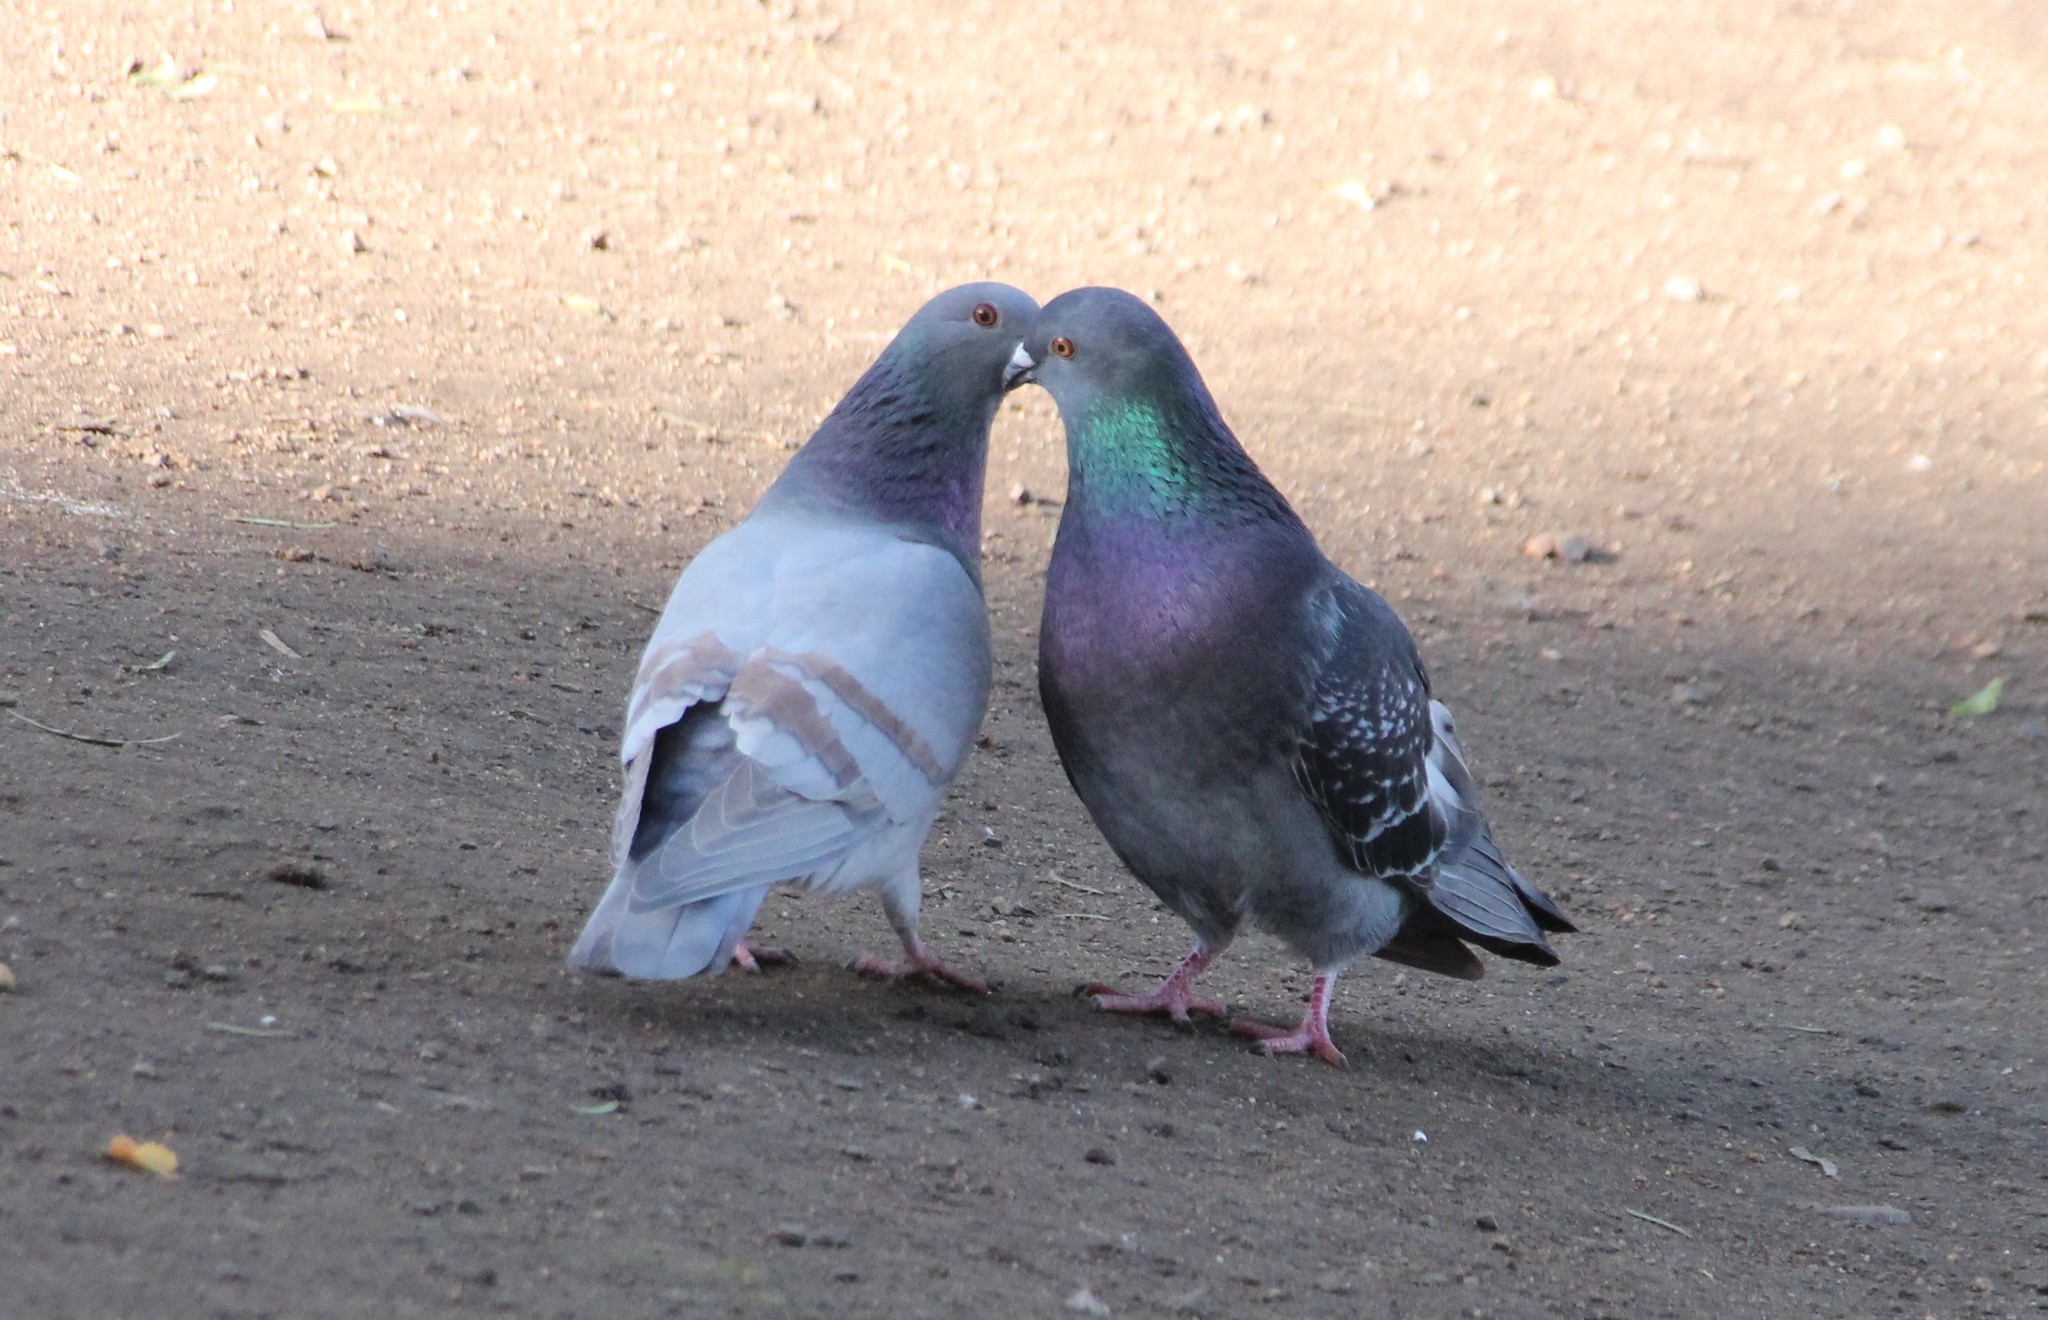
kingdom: Animalia
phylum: Chordata
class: Aves
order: Columbiformes
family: Columbidae
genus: Columba
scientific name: Columba livia
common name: Rock pigeon
